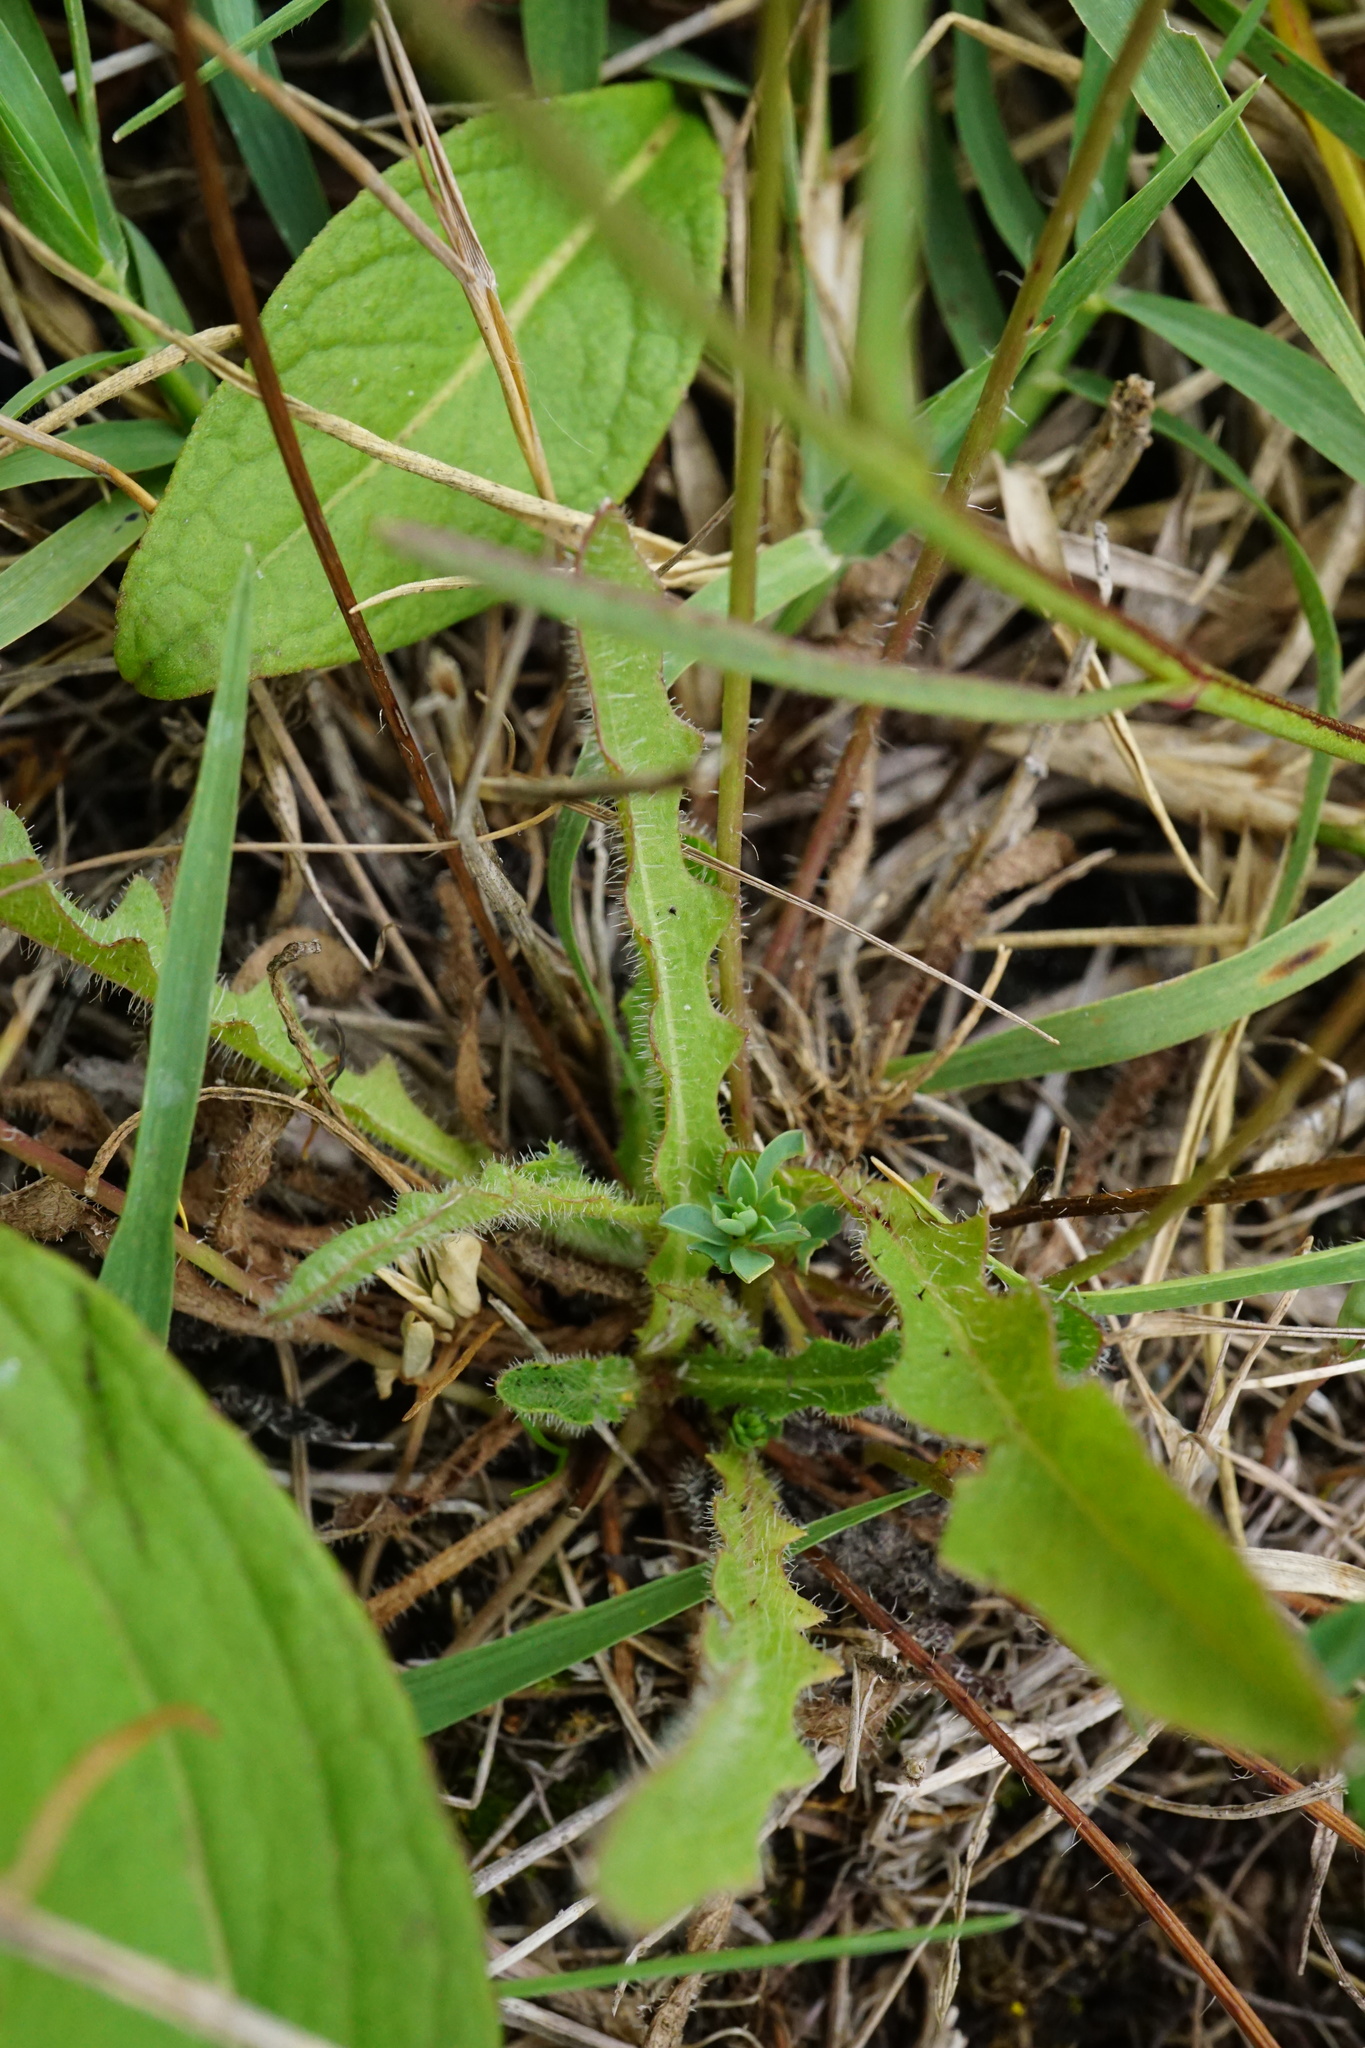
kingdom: Plantae
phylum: Tracheophyta
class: Magnoliopsida
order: Asterales
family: Asteraceae
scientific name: Asteraceae
